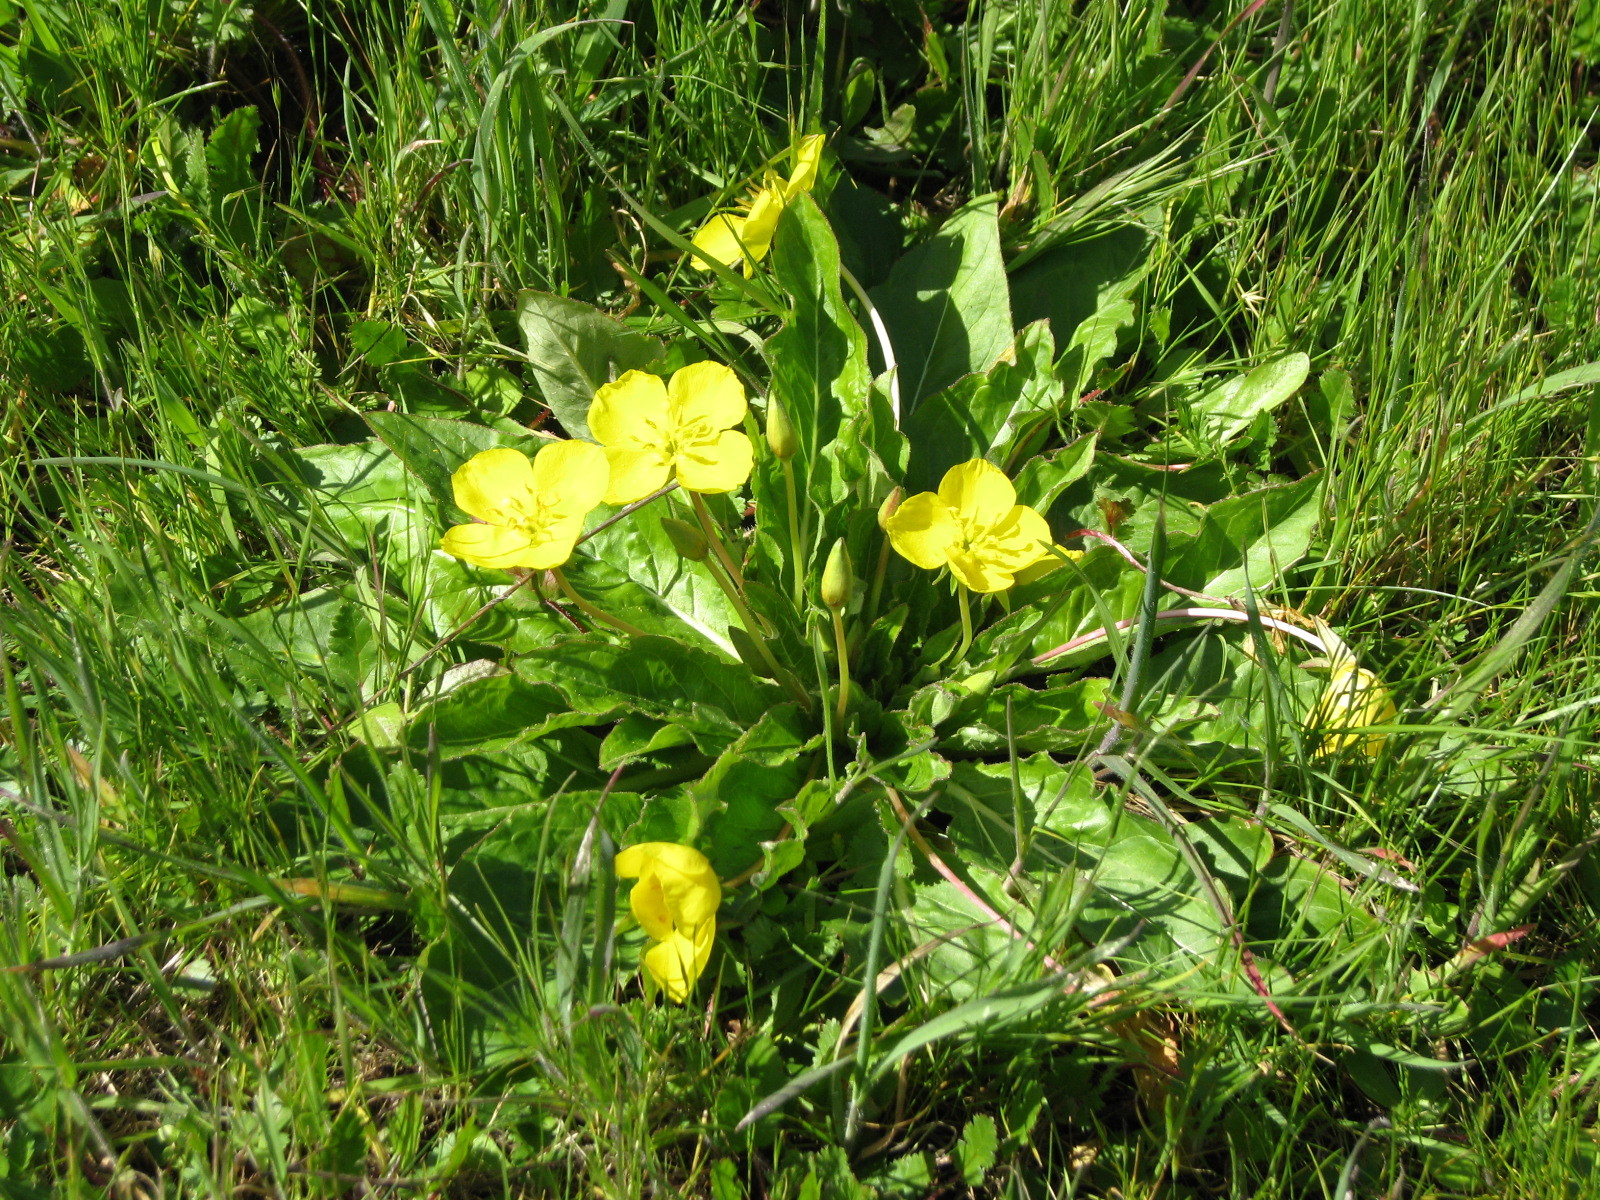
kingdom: Plantae
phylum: Tracheophyta
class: Magnoliopsida
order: Myrtales
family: Onagraceae
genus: Taraxia
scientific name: Taraxia ovata
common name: Goldeneggs
